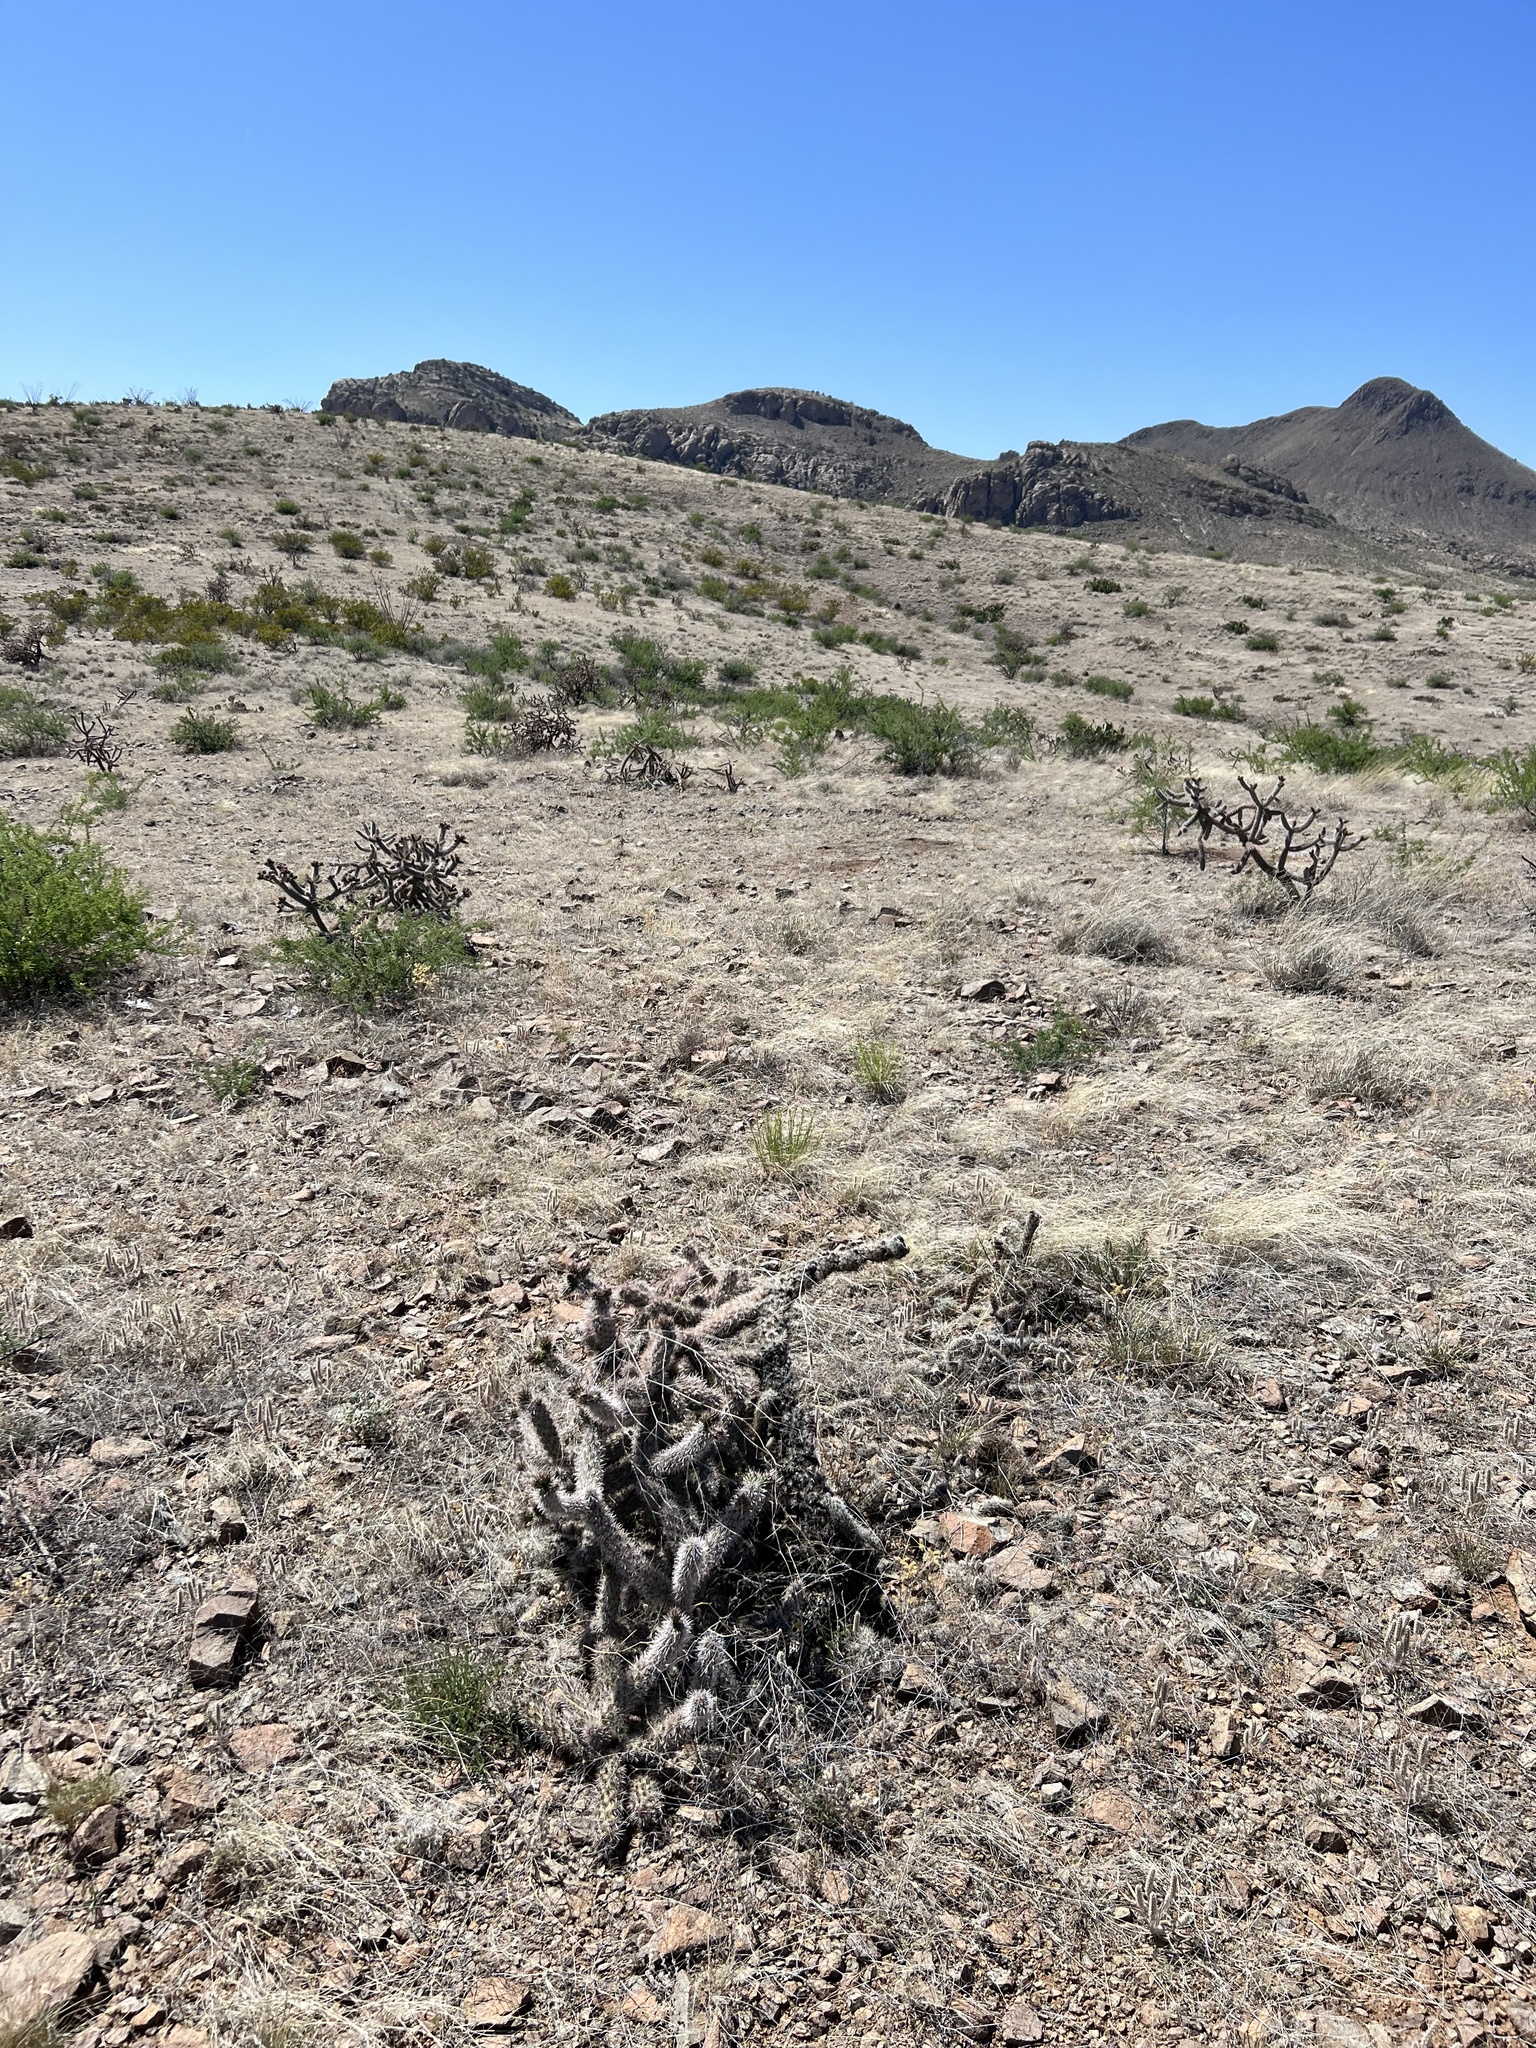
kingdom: Plantae
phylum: Tracheophyta
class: Magnoliopsida
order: Caryophyllales
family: Cactaceae
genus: Cylindropuntia
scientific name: Cylindropuntia imbricata
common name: Candelabrum cactus
